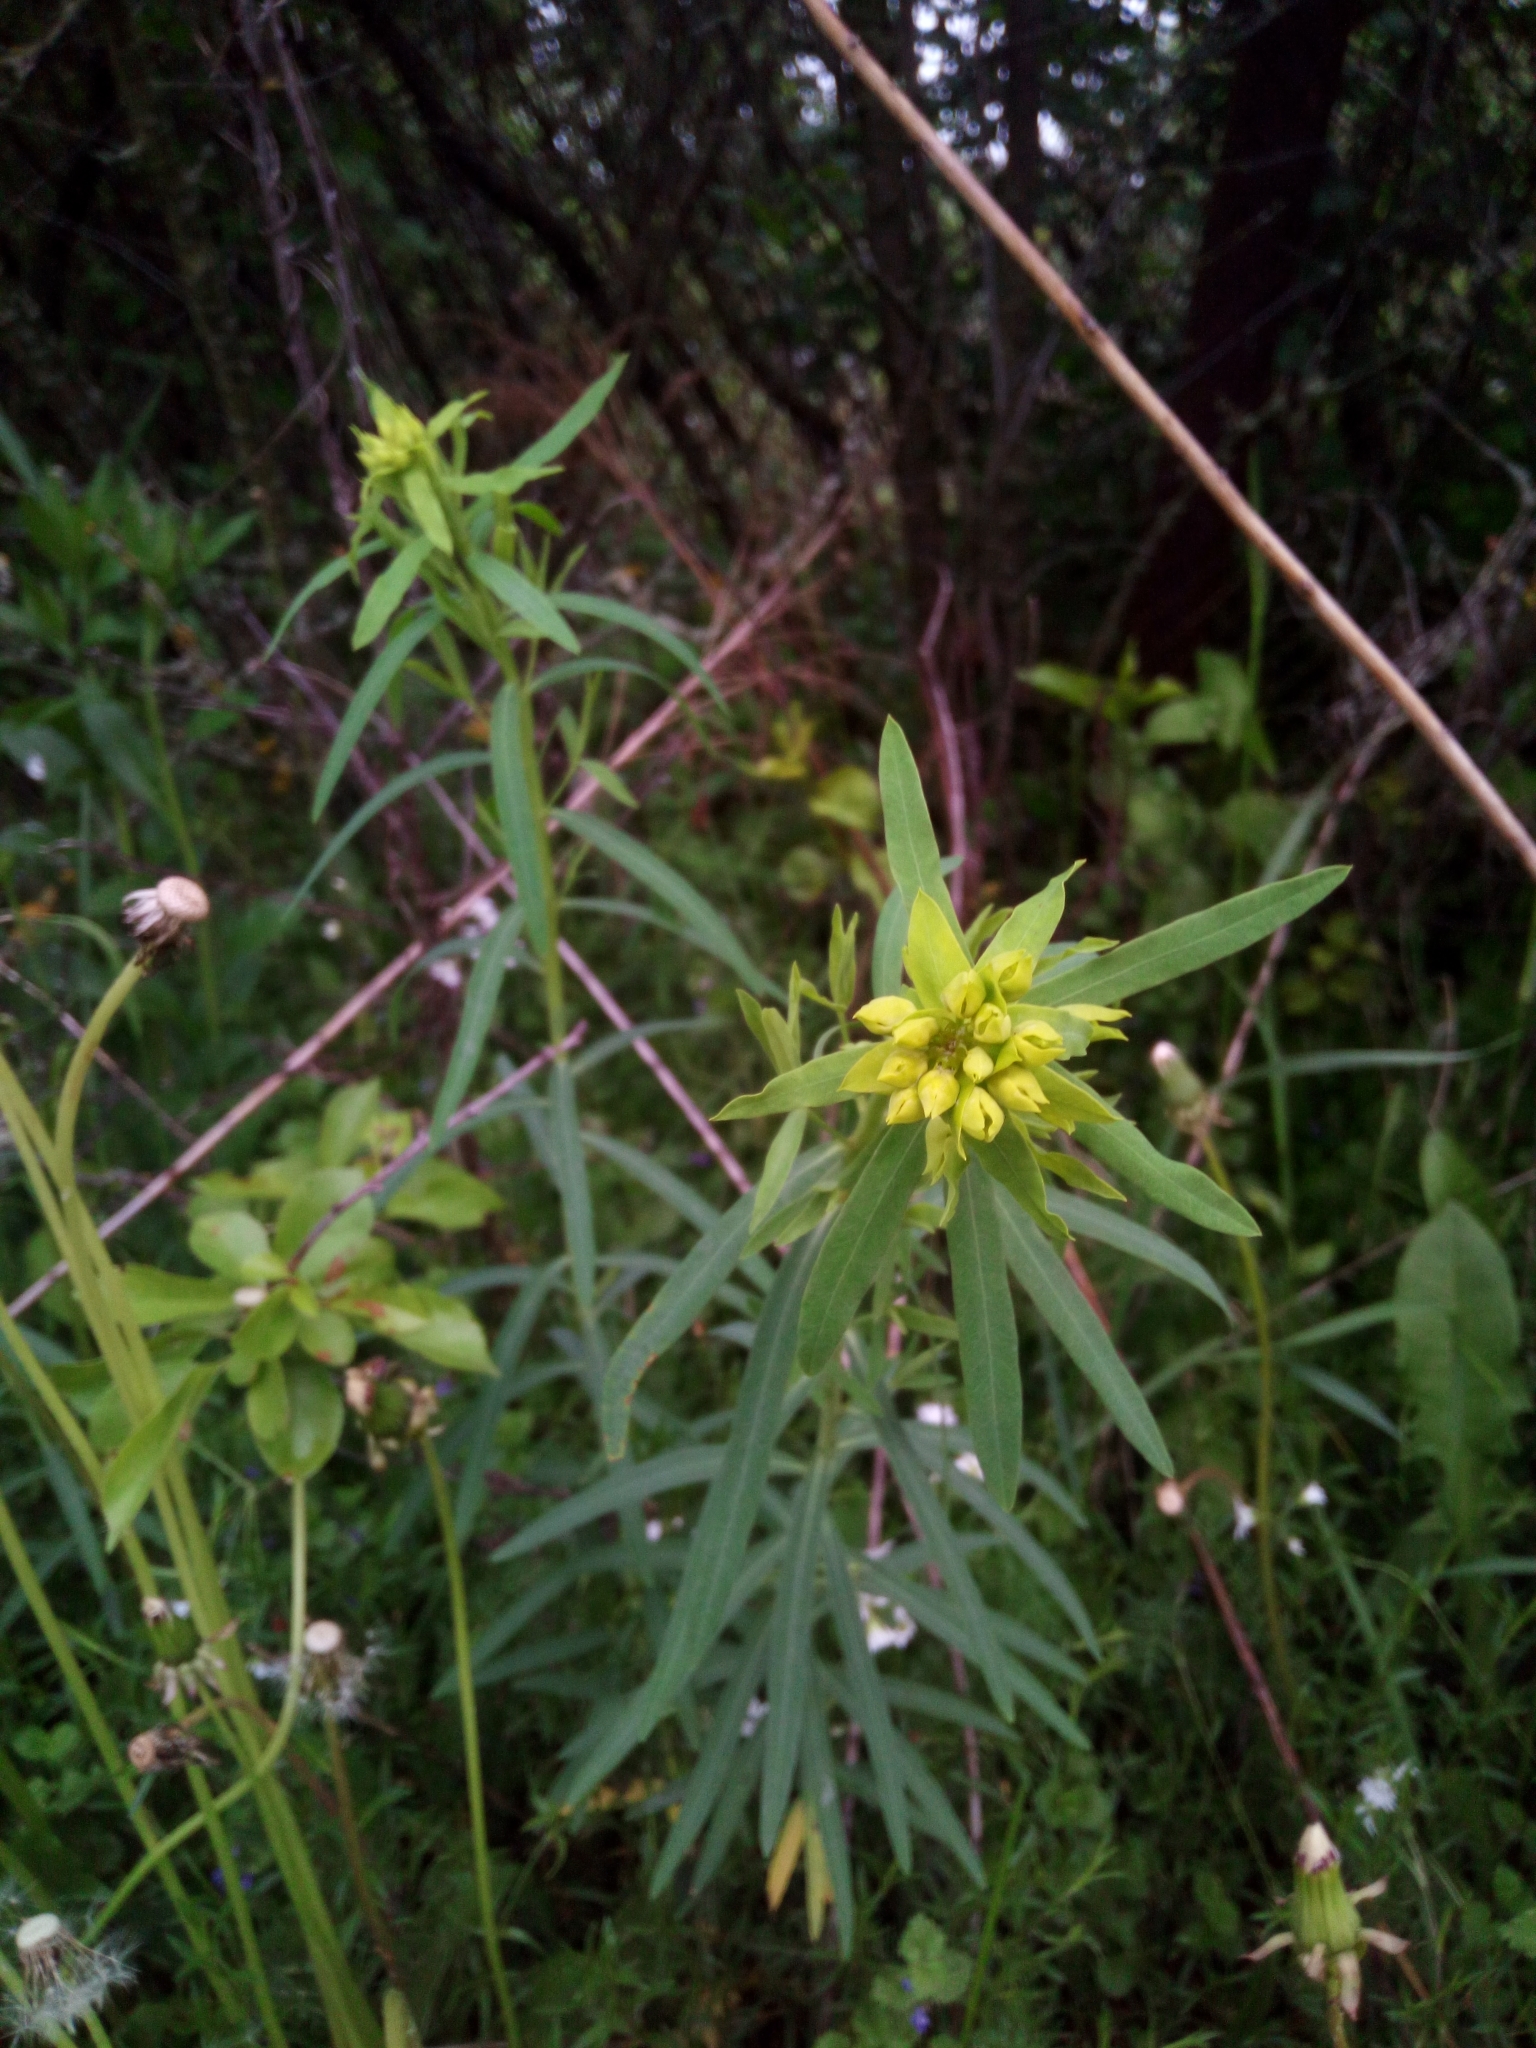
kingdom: Plantae
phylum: Tracheophyta
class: Magnoliopsida
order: Malpighiales
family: Euphorbiaceae
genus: Euphorbia
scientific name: Euphorbia virgata
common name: Leafy spurge
